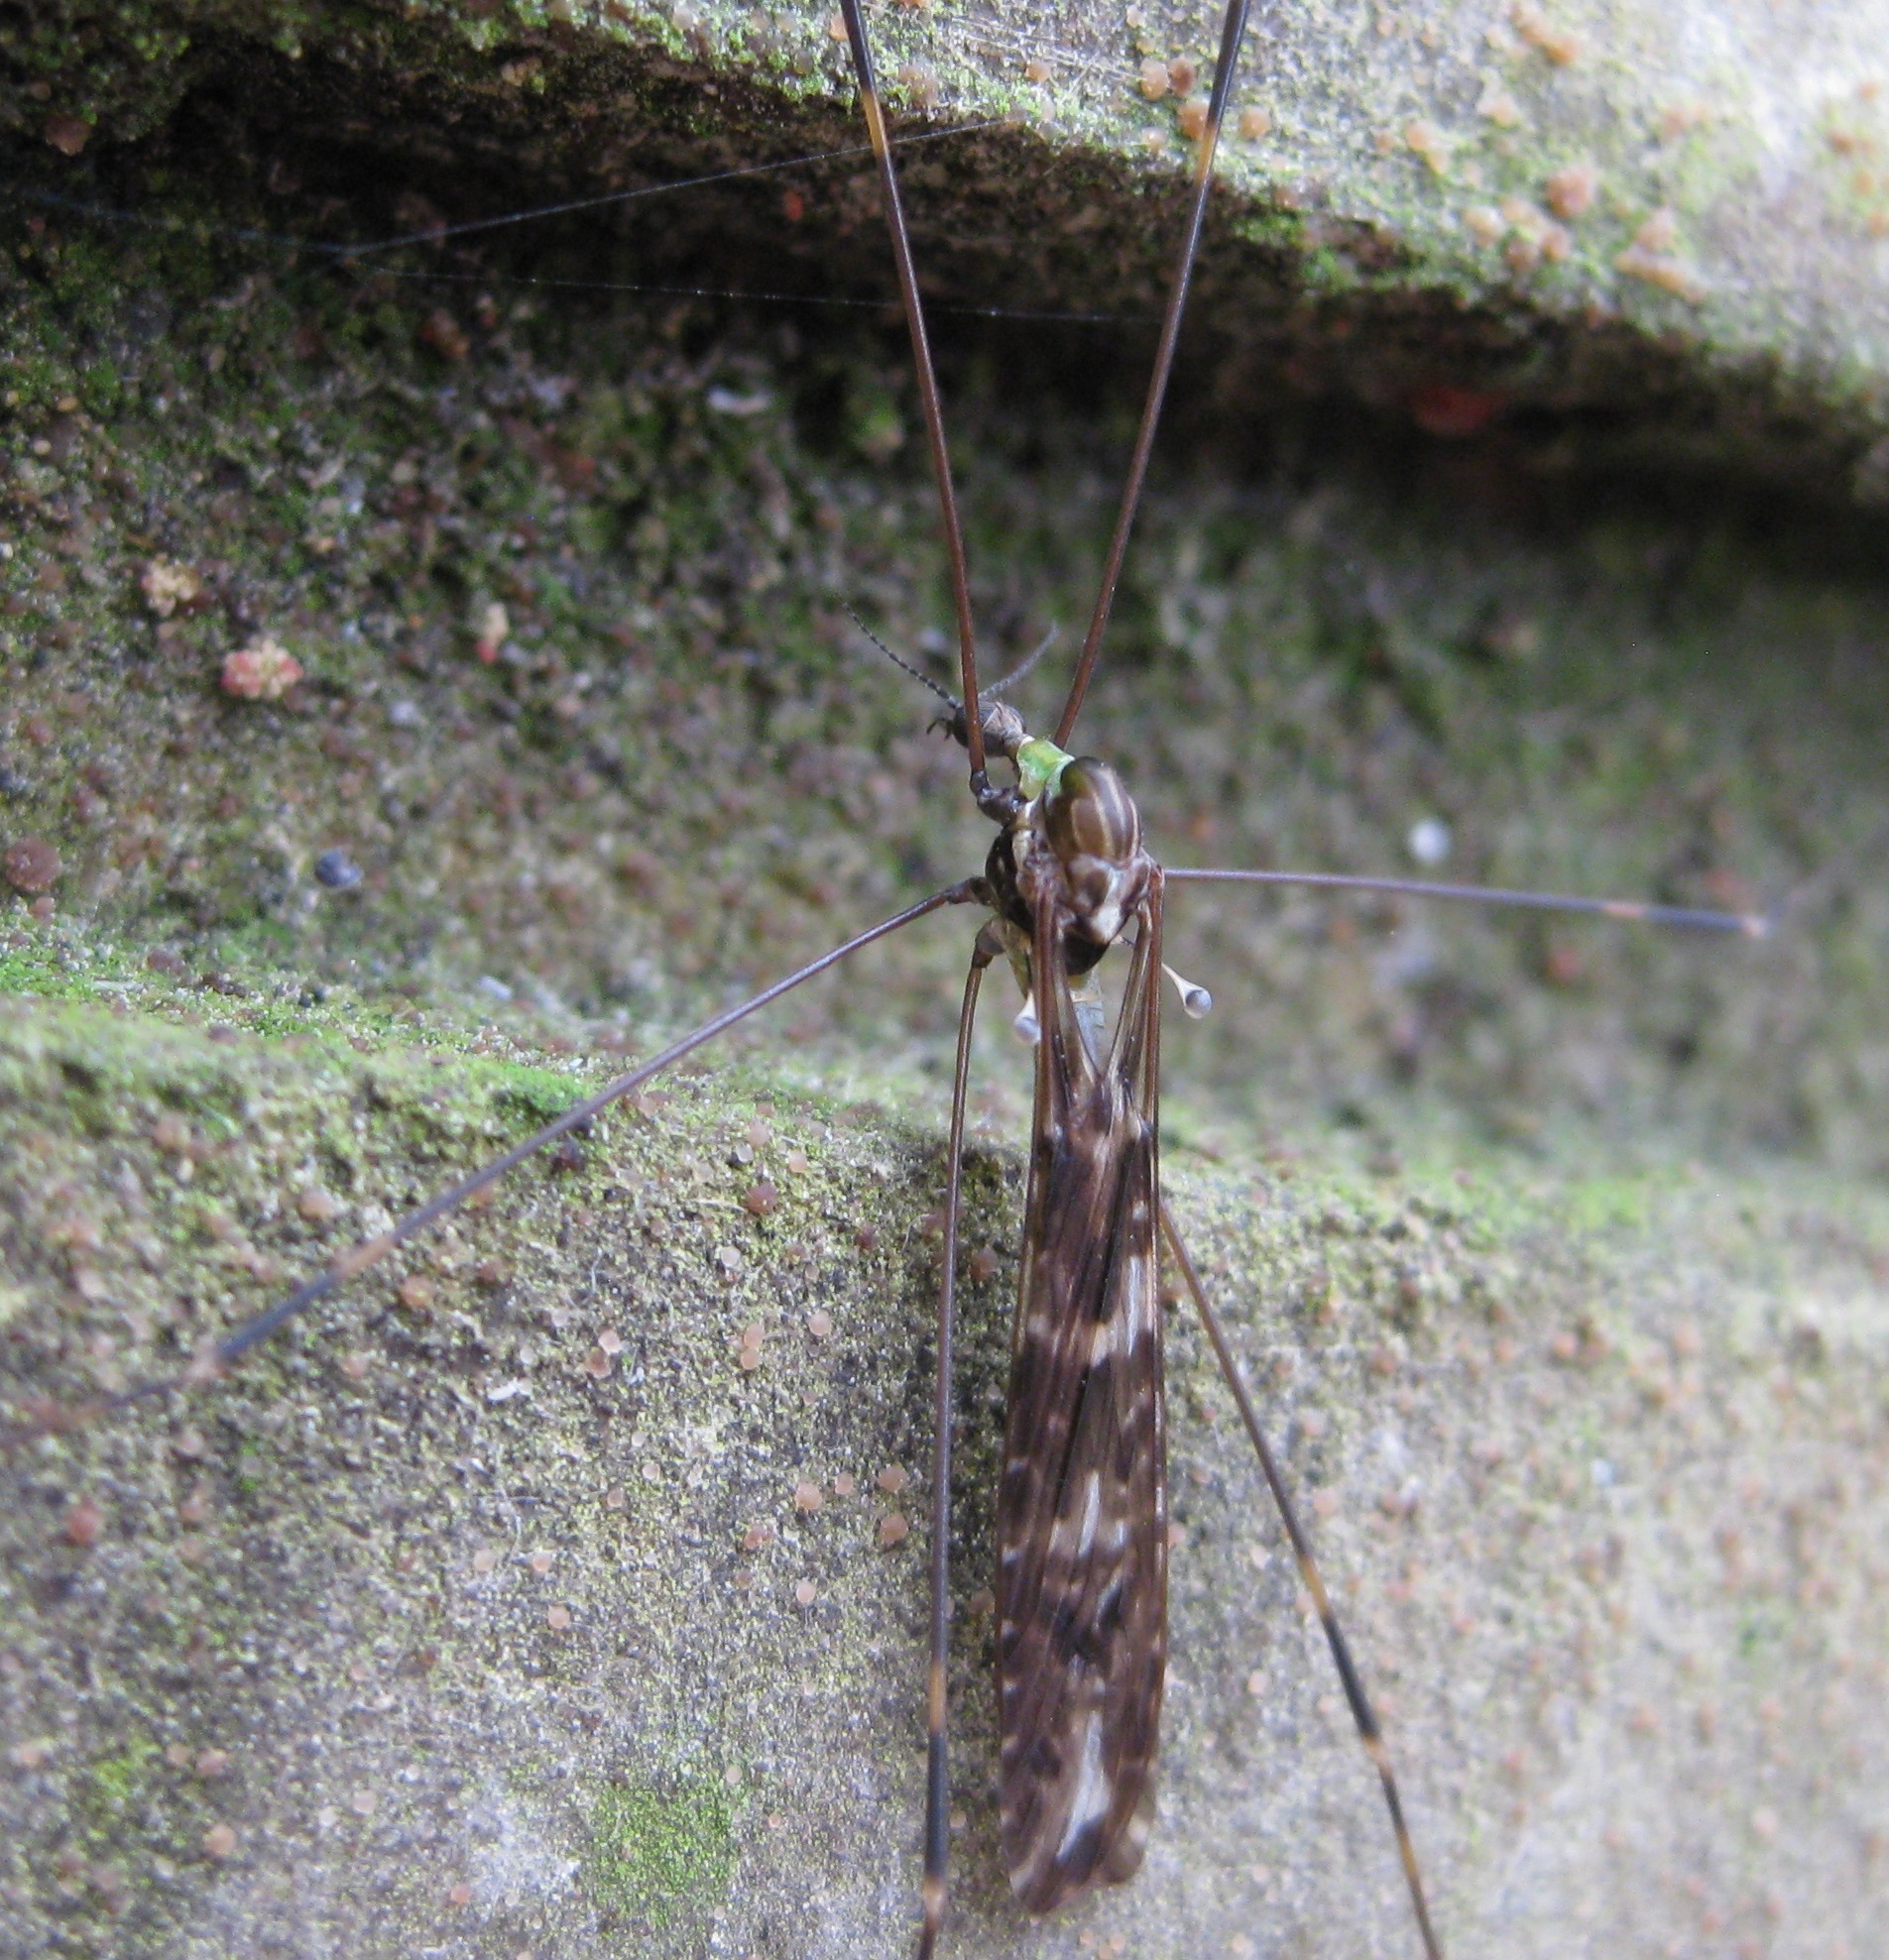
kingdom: Animalia
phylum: Arthropoda
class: Insecta
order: Diptera
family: Limoniidae
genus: Discobola
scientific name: Discobola dohrni
